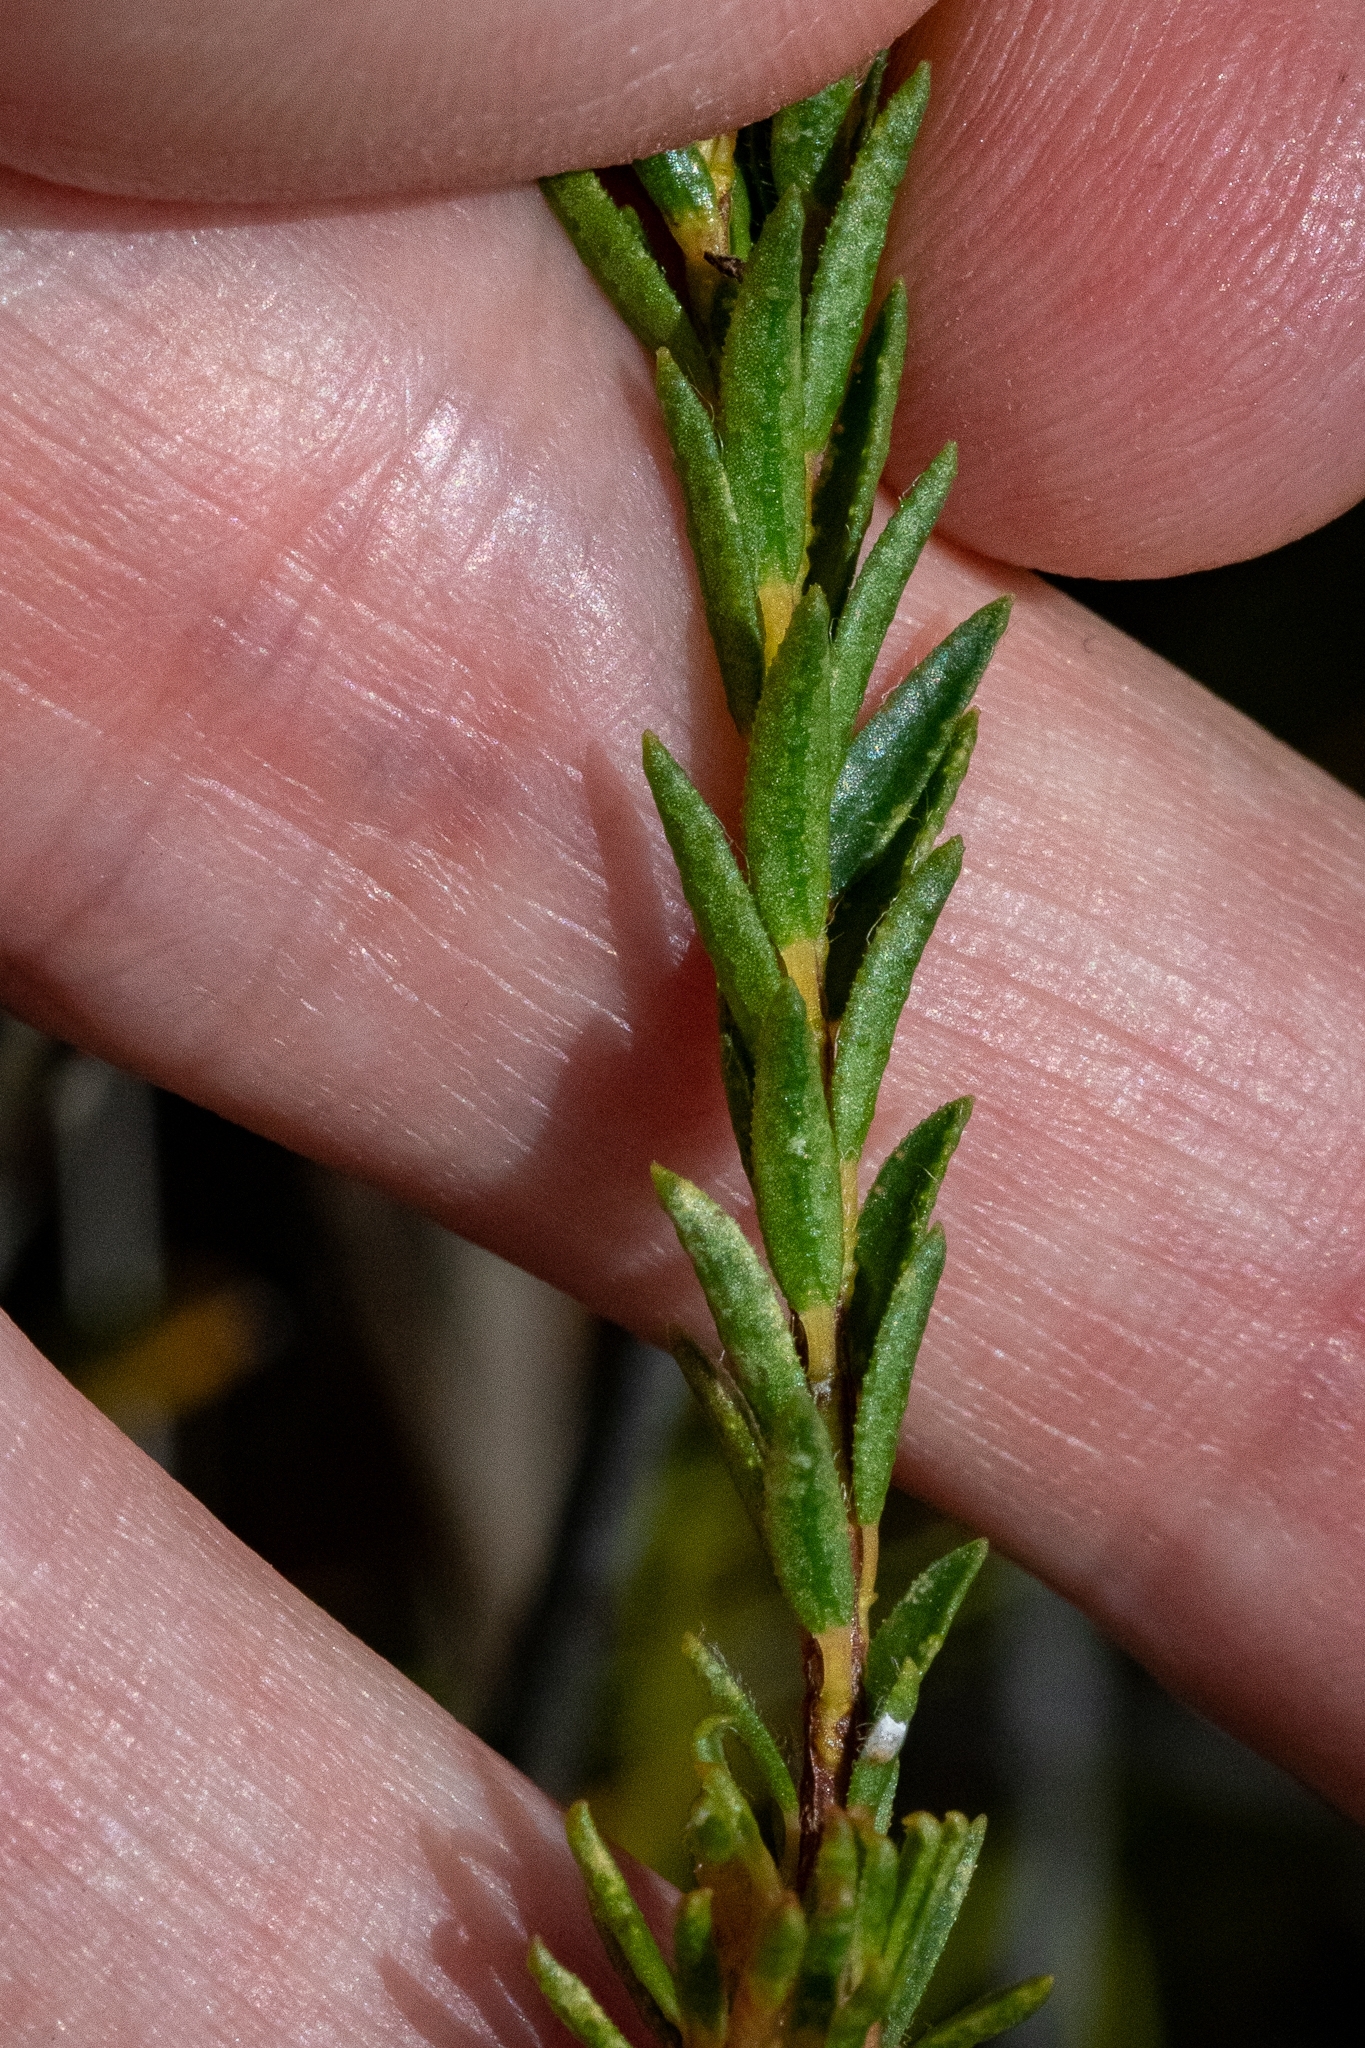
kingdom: Plantae
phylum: Tracheophyta
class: Magnoliopsida
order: Sapindales
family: Rutaceae
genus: Agathosma
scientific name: Agathosma bifida
